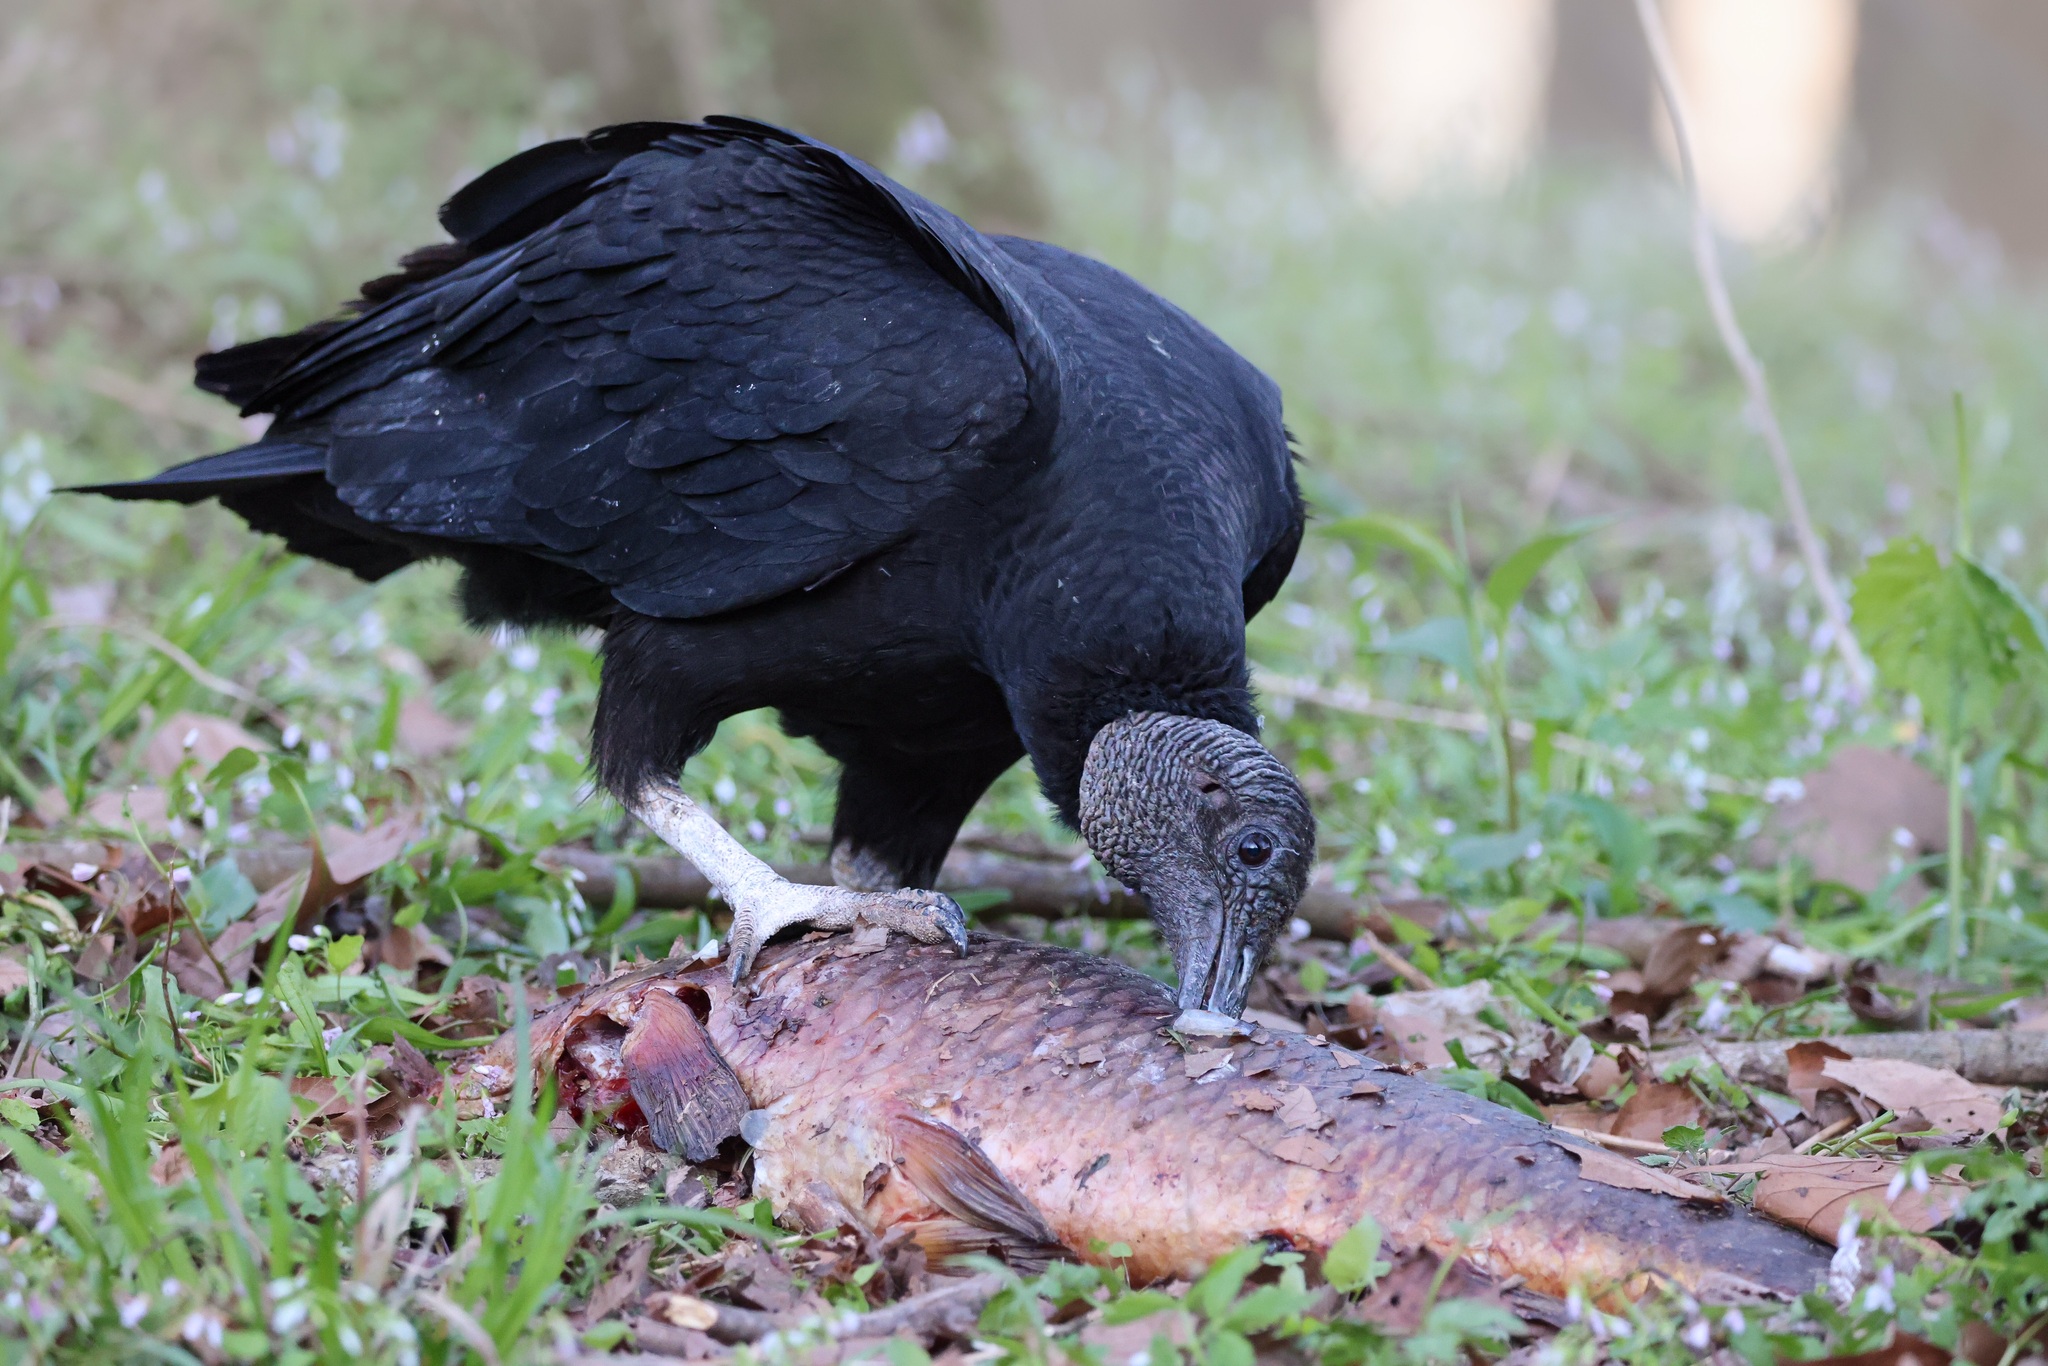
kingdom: Animalia
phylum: Chordata
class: Aves
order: Accipitriformes
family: Cathartidae
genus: Coragyps
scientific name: Coragyps atratus
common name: Black vulture
